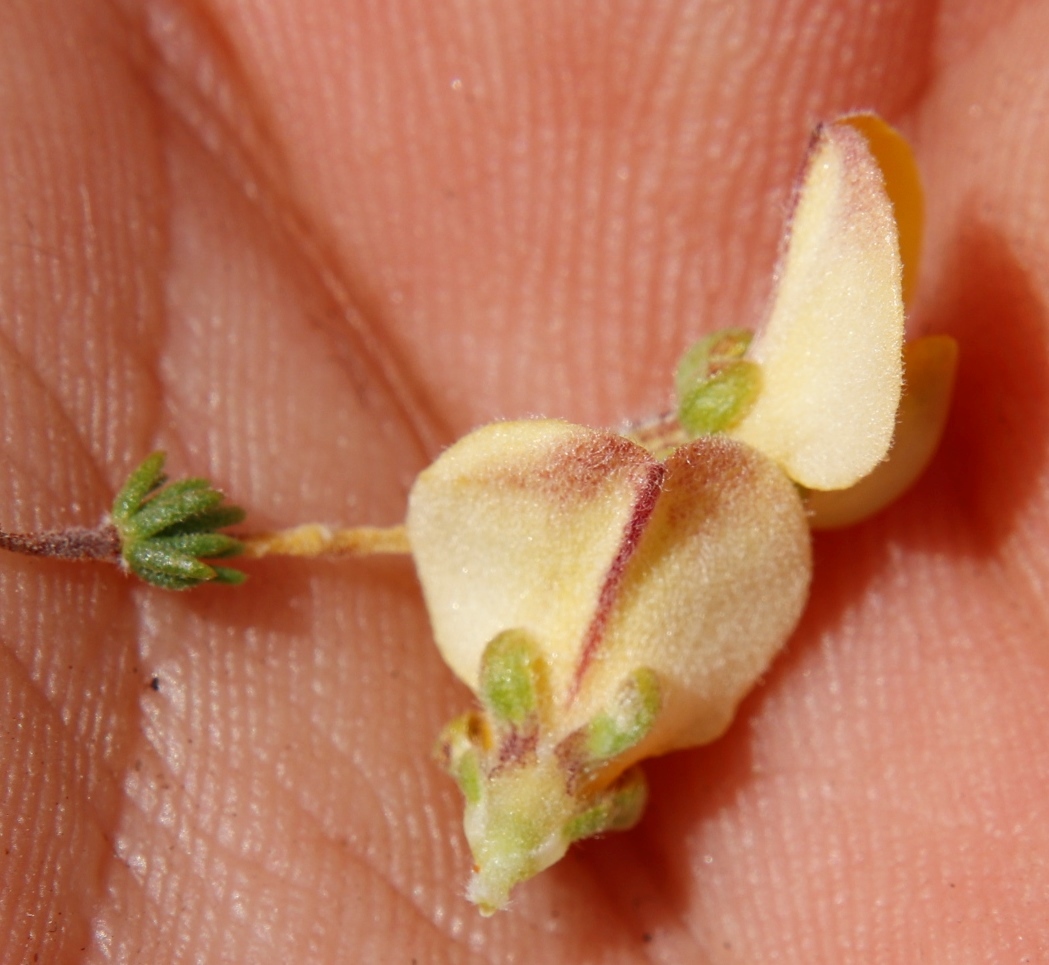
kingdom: Plantae
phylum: Tracheophyta
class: Magnoliopsida
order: Fabales
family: Fabaceae
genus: Aspalathus
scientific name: Aspalathus cymbiformis
